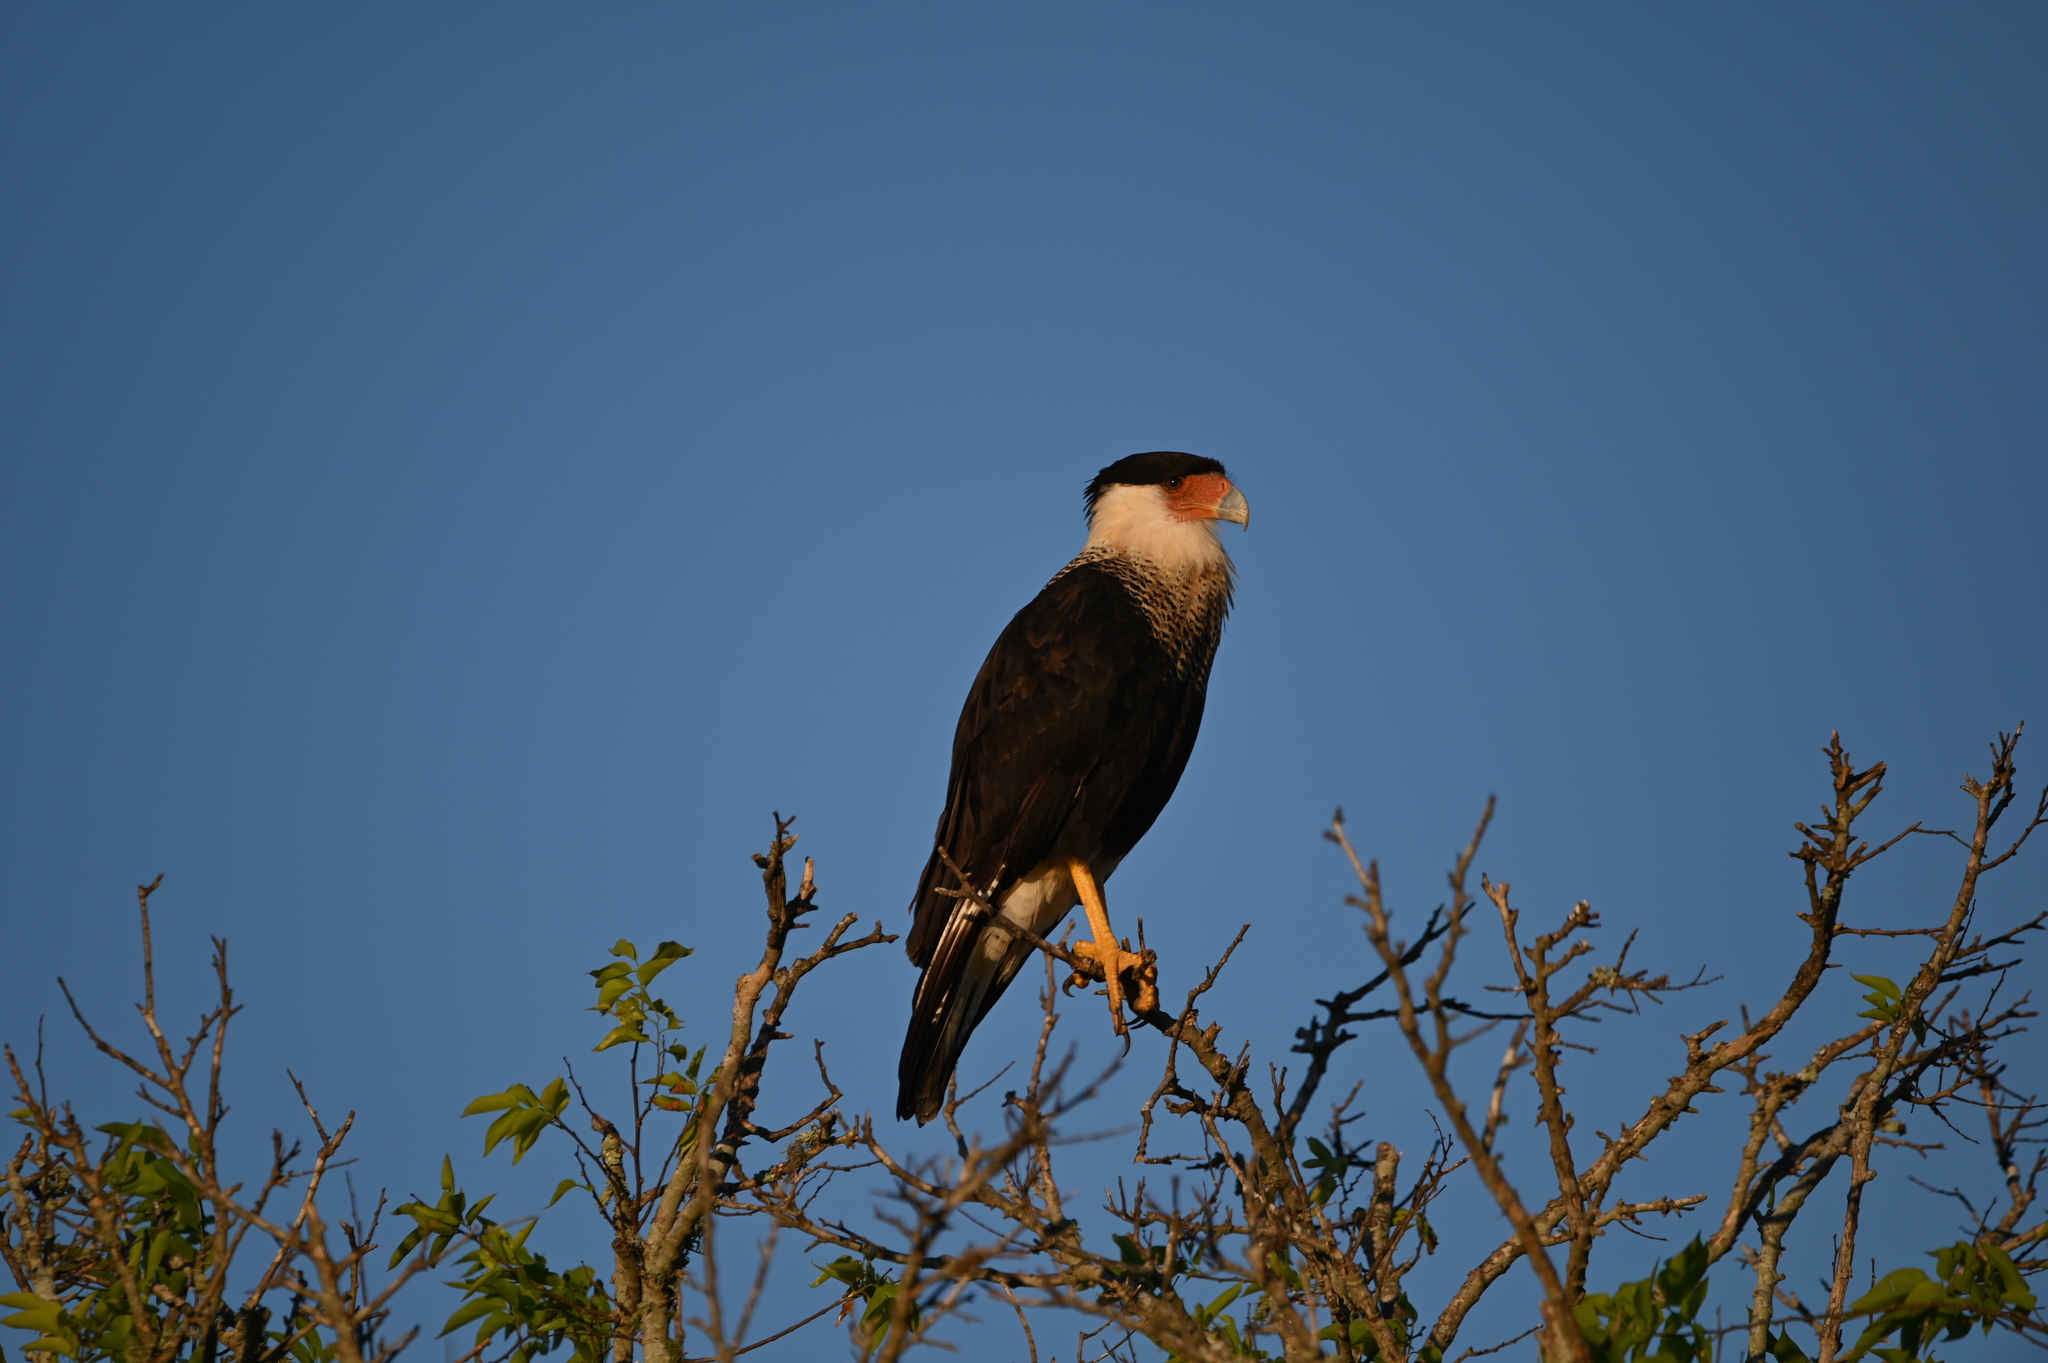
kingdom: Animalia
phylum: Chordata
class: Aves
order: Falconiformes
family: Falconidae
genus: Caracara
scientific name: Caracara plancus
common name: Southern caracara
